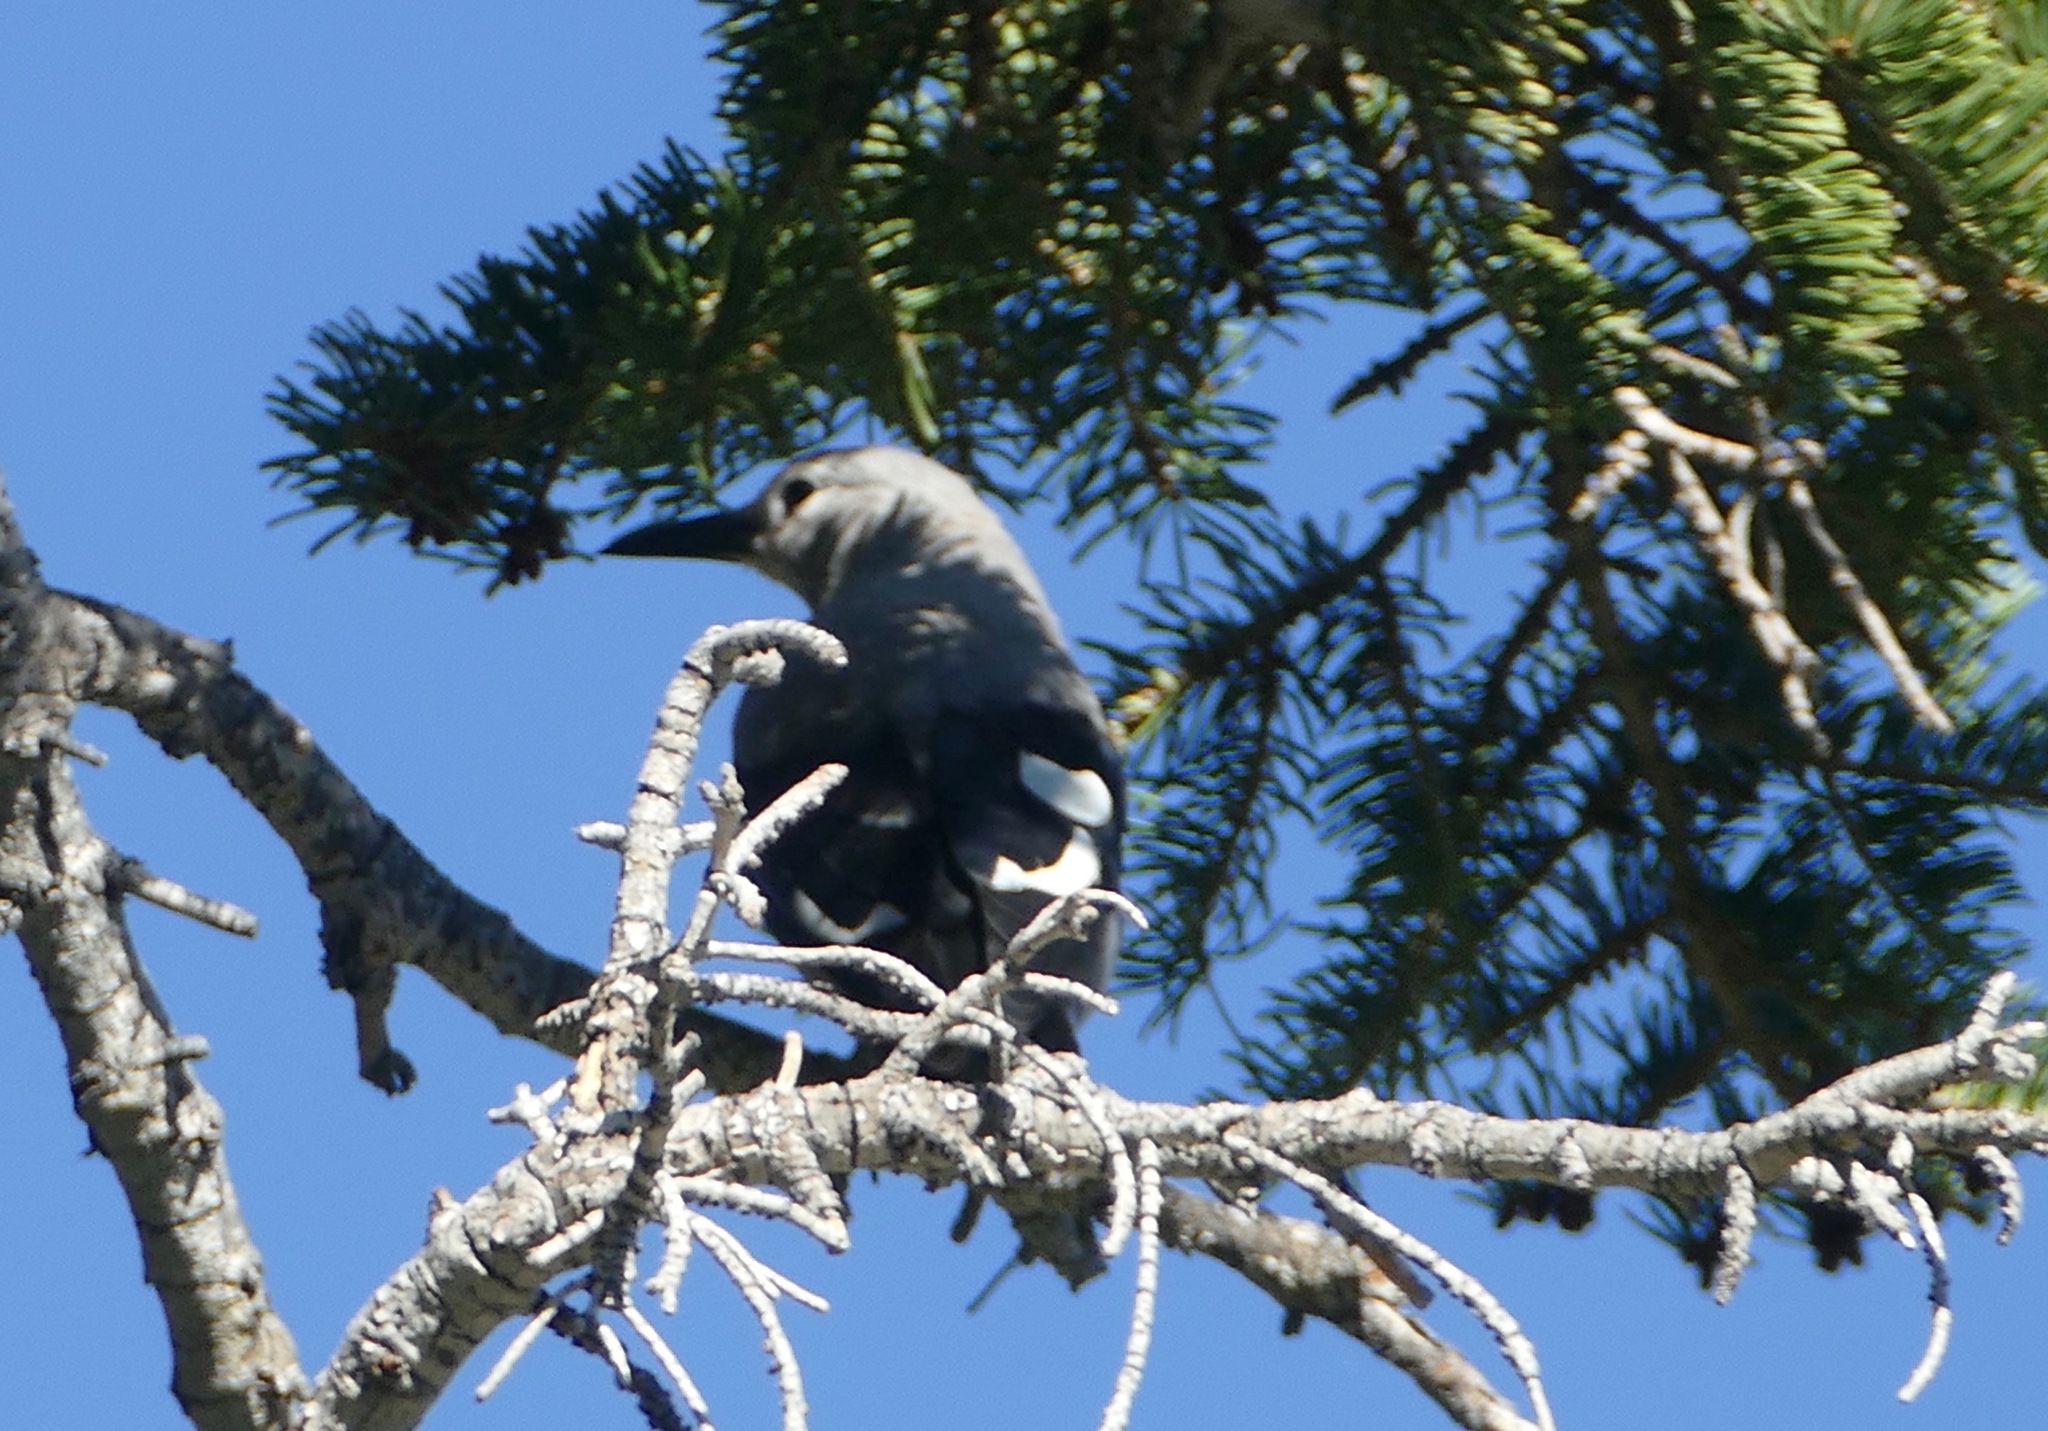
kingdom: Animalia
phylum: Chordata
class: Aves
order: Passeriformes
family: Corvidae
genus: Nucifraga
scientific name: Nucifraga columbiana
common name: Clark's nutcracker
